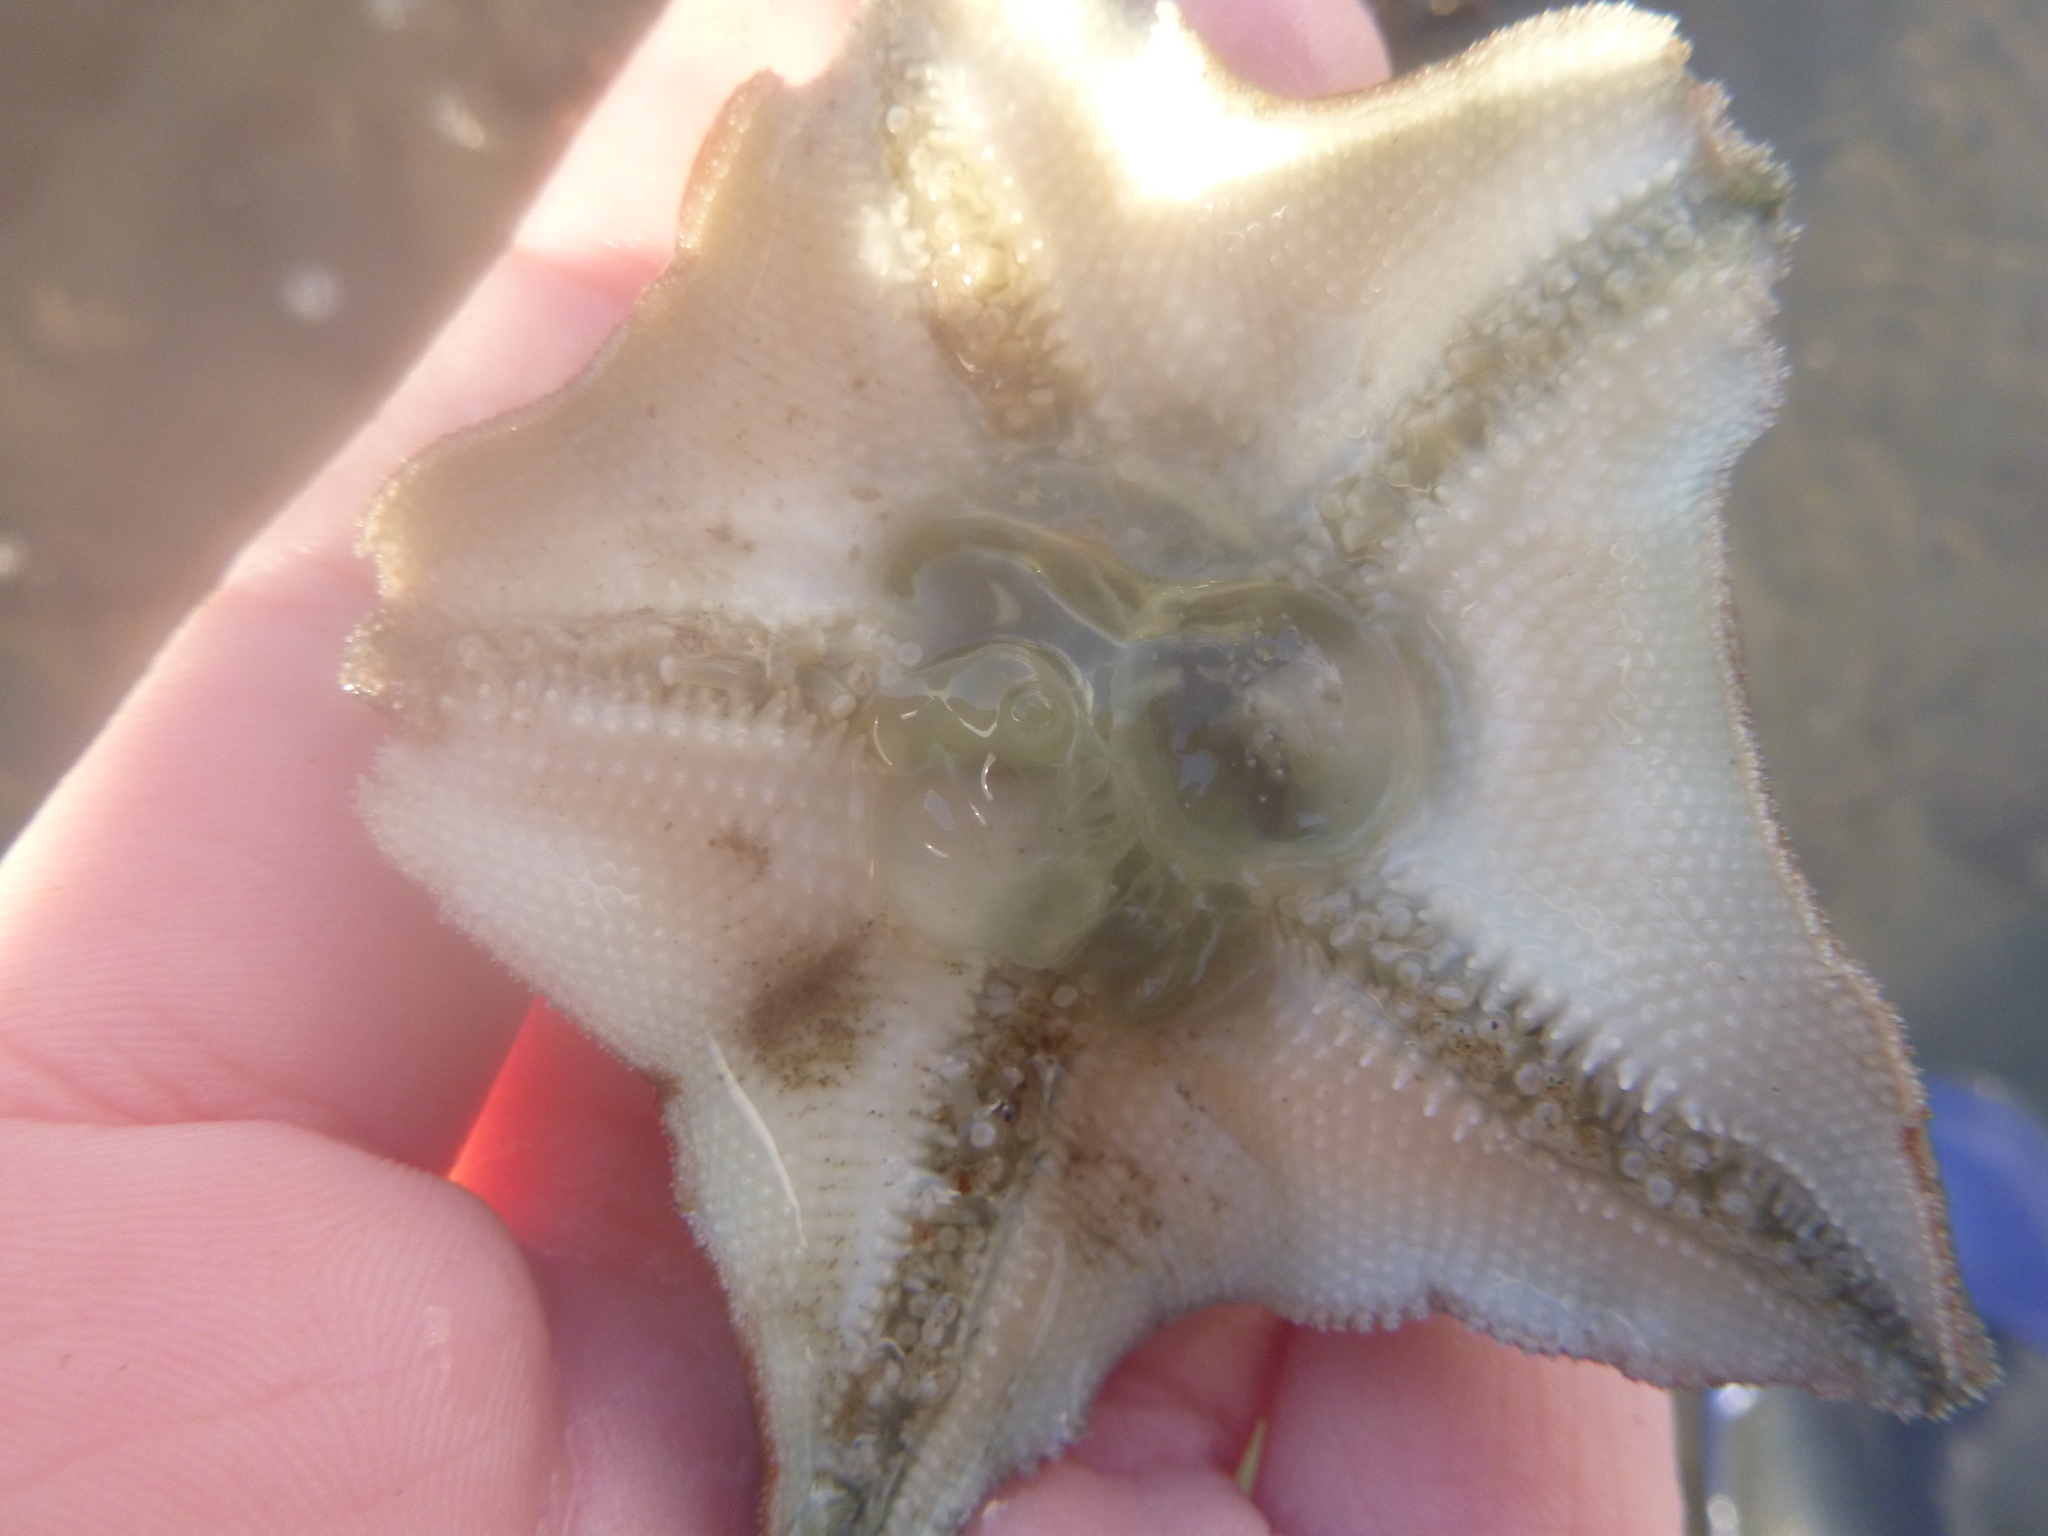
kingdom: Animalia
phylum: Echinodermata
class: Asteroidea
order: Valvatida
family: Asterinidae
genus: Patiriella
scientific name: Patiriella regularis
